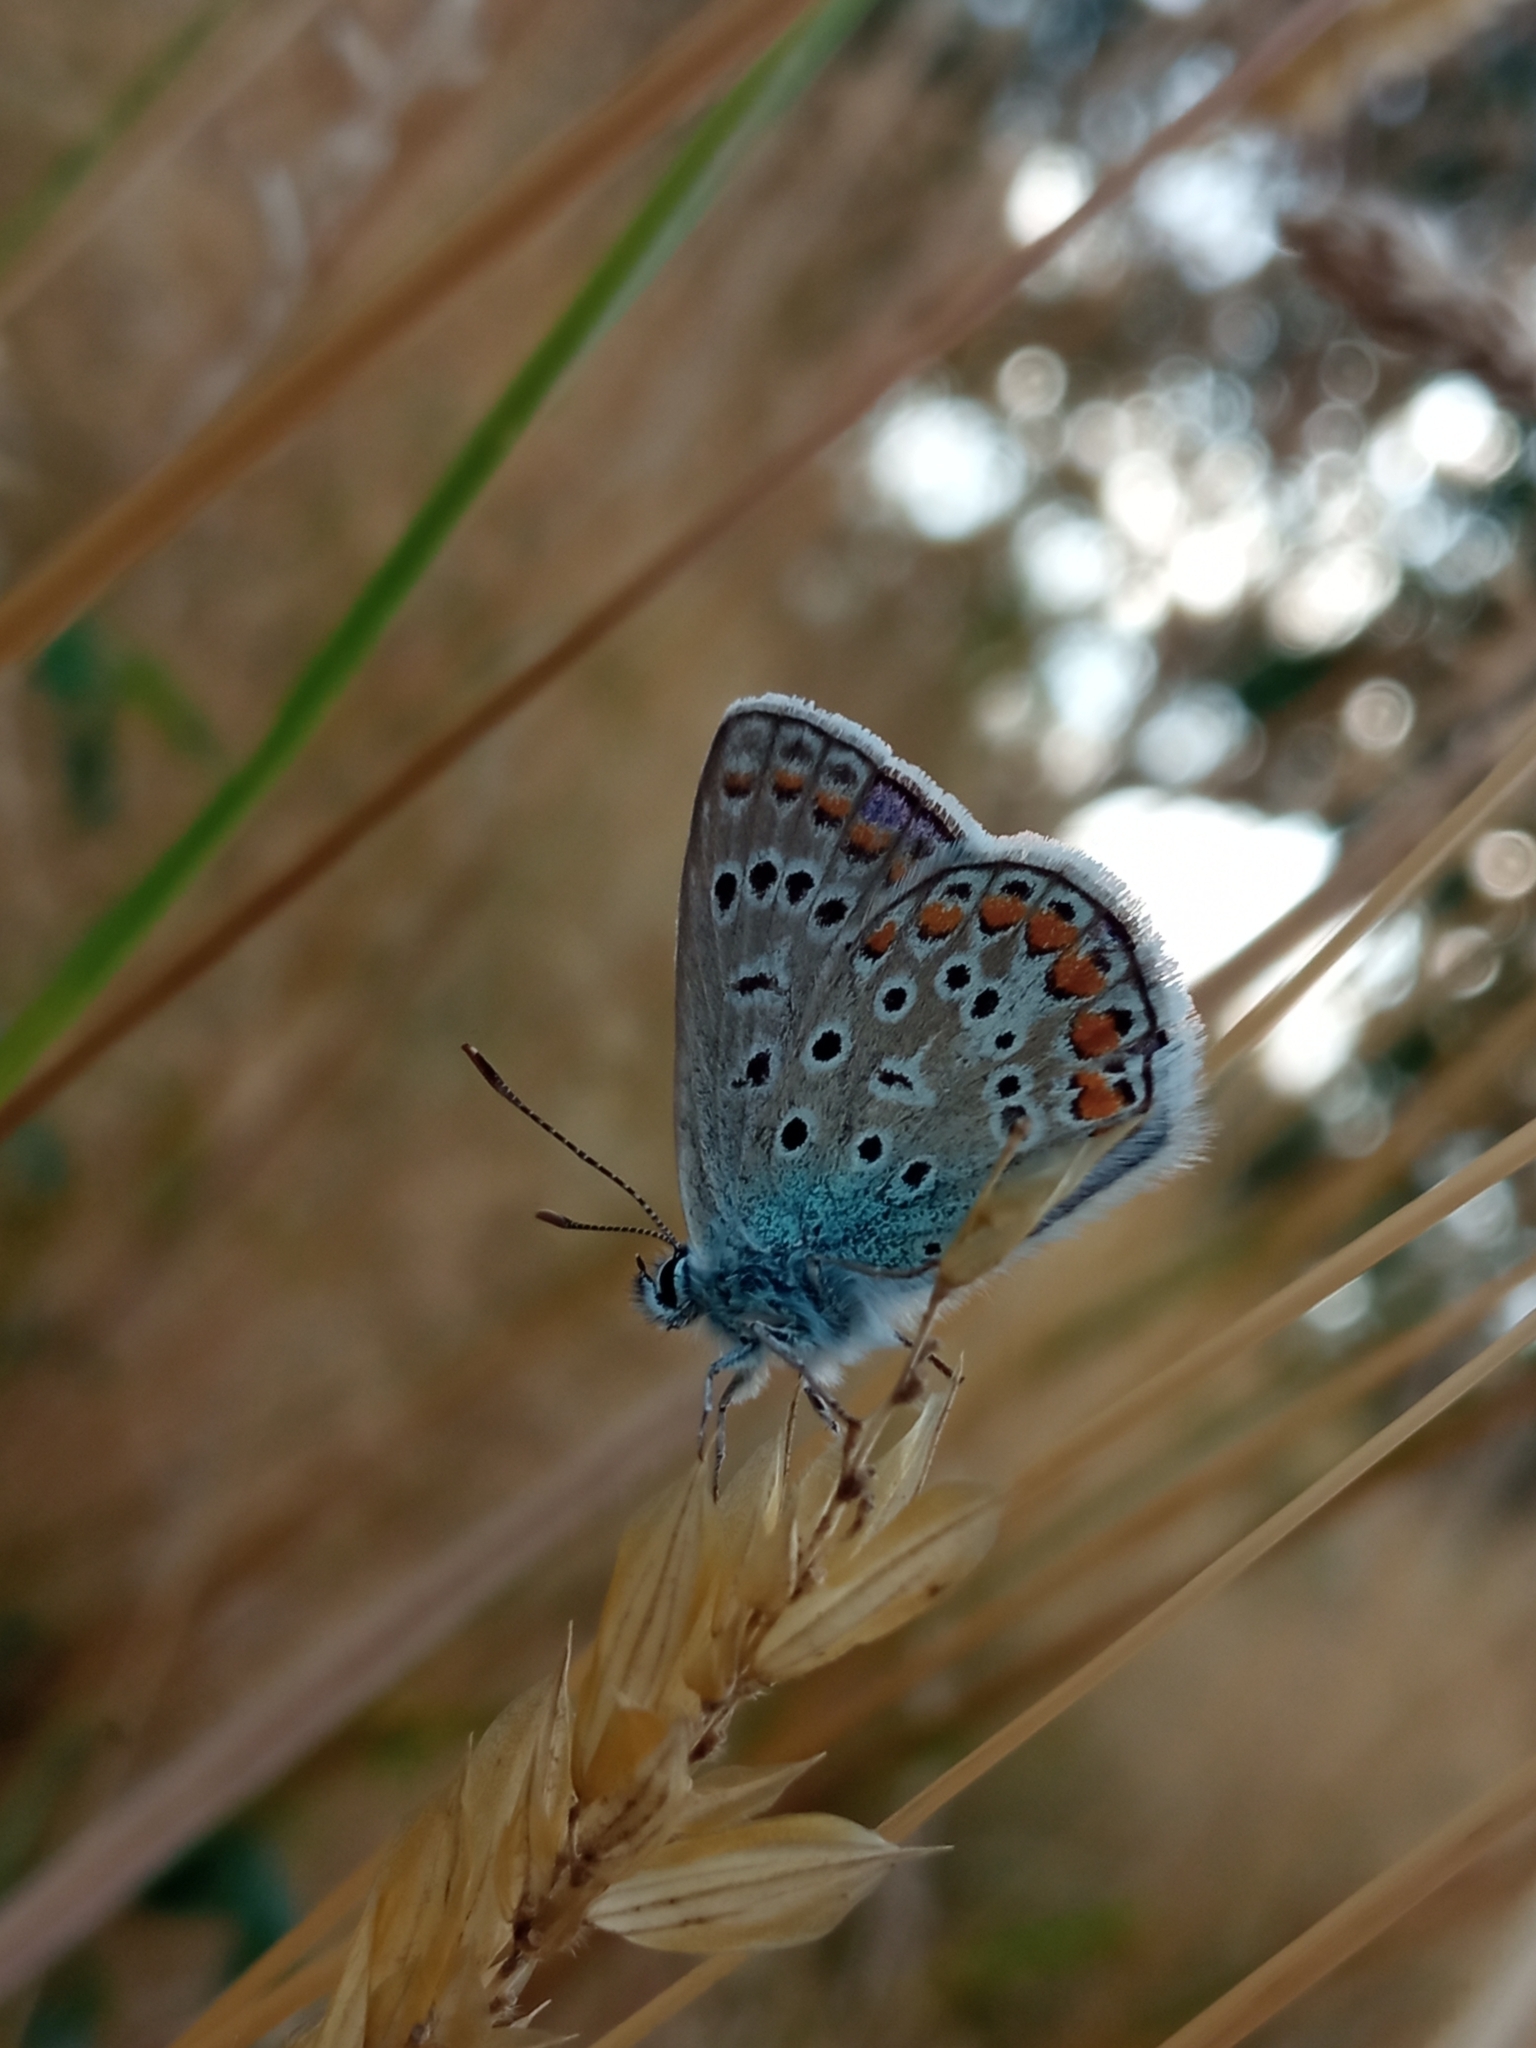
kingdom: Animalia
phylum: Arthropoda
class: Insecta
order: Lepidoptera
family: Lycaenidae
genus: Polyommatus
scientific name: Polyommatus icarus
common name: Common blue
